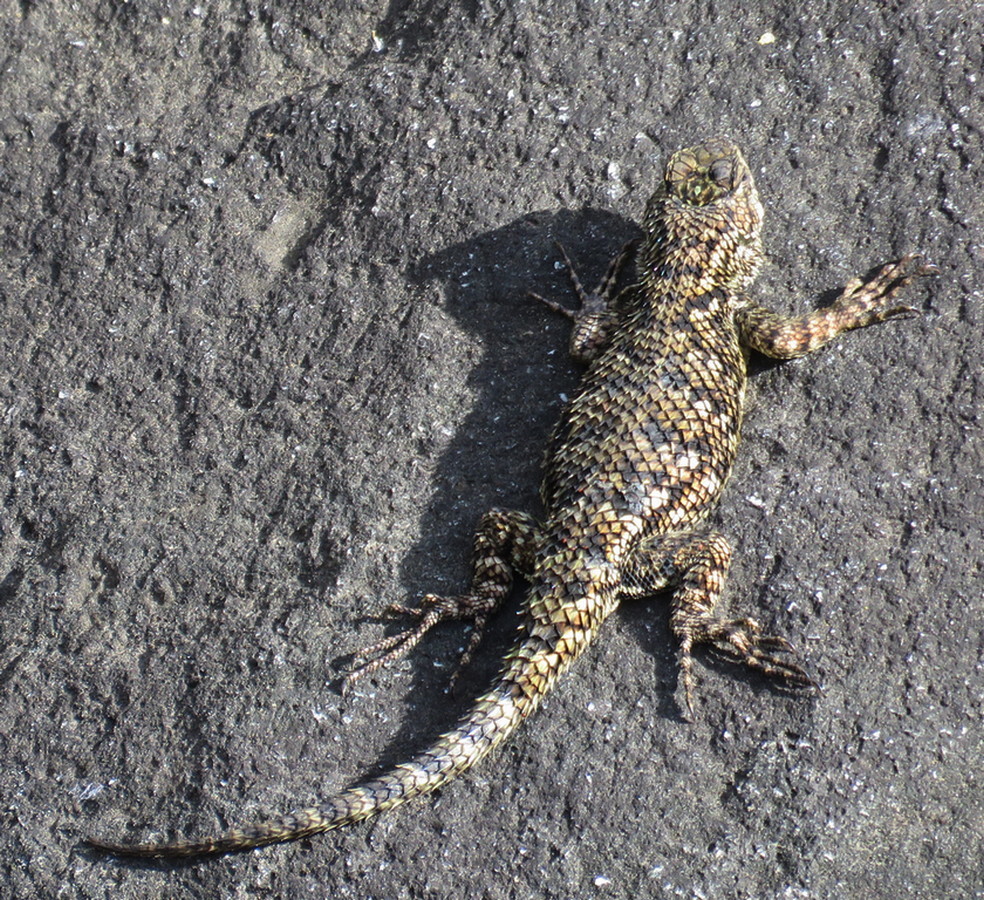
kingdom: Animalia
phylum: Chordata
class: Squamata
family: Phrynosomatidae
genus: Sceloporus
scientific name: Sceloporus malachiticus
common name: Green spiny lizard
